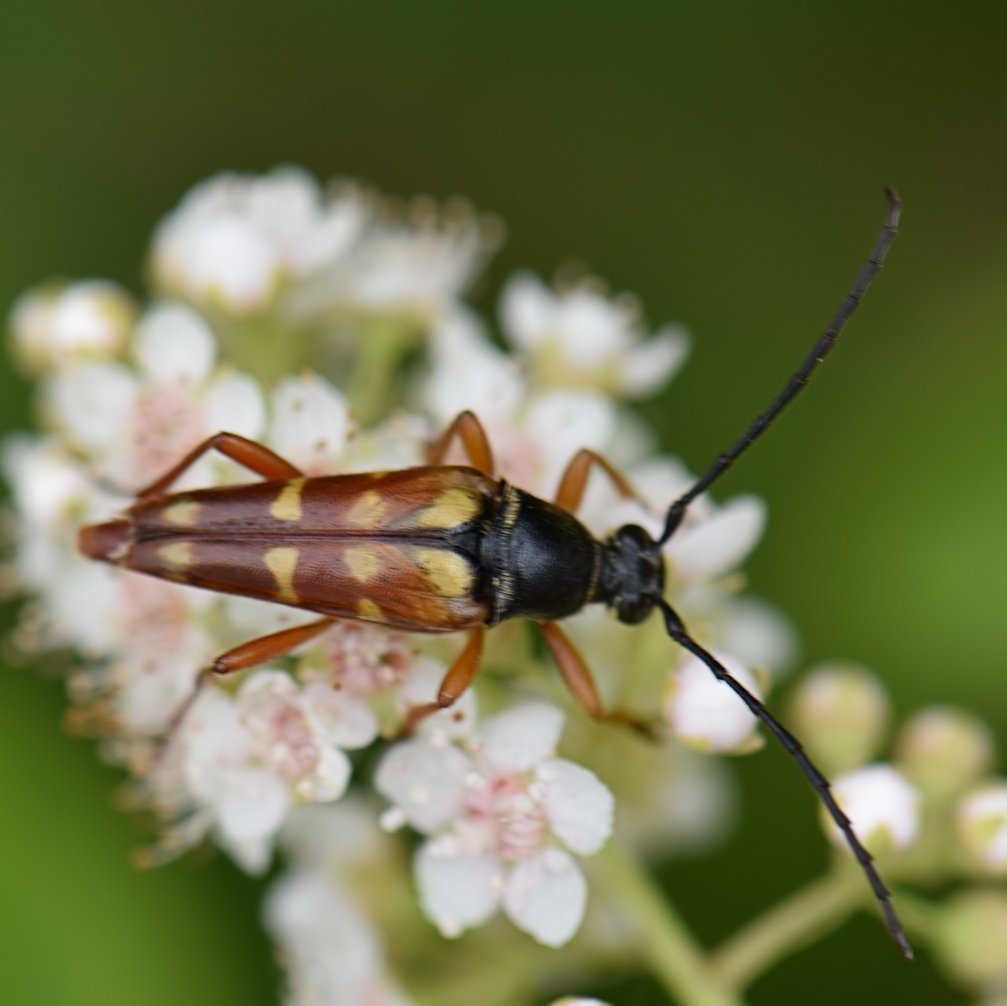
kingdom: Animalia
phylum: Arthropoda
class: Insecta
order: Coleoptera
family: Cerambycidae
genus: Typocerus
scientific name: Typocerus velutinus
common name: Banded longhorn beetle
